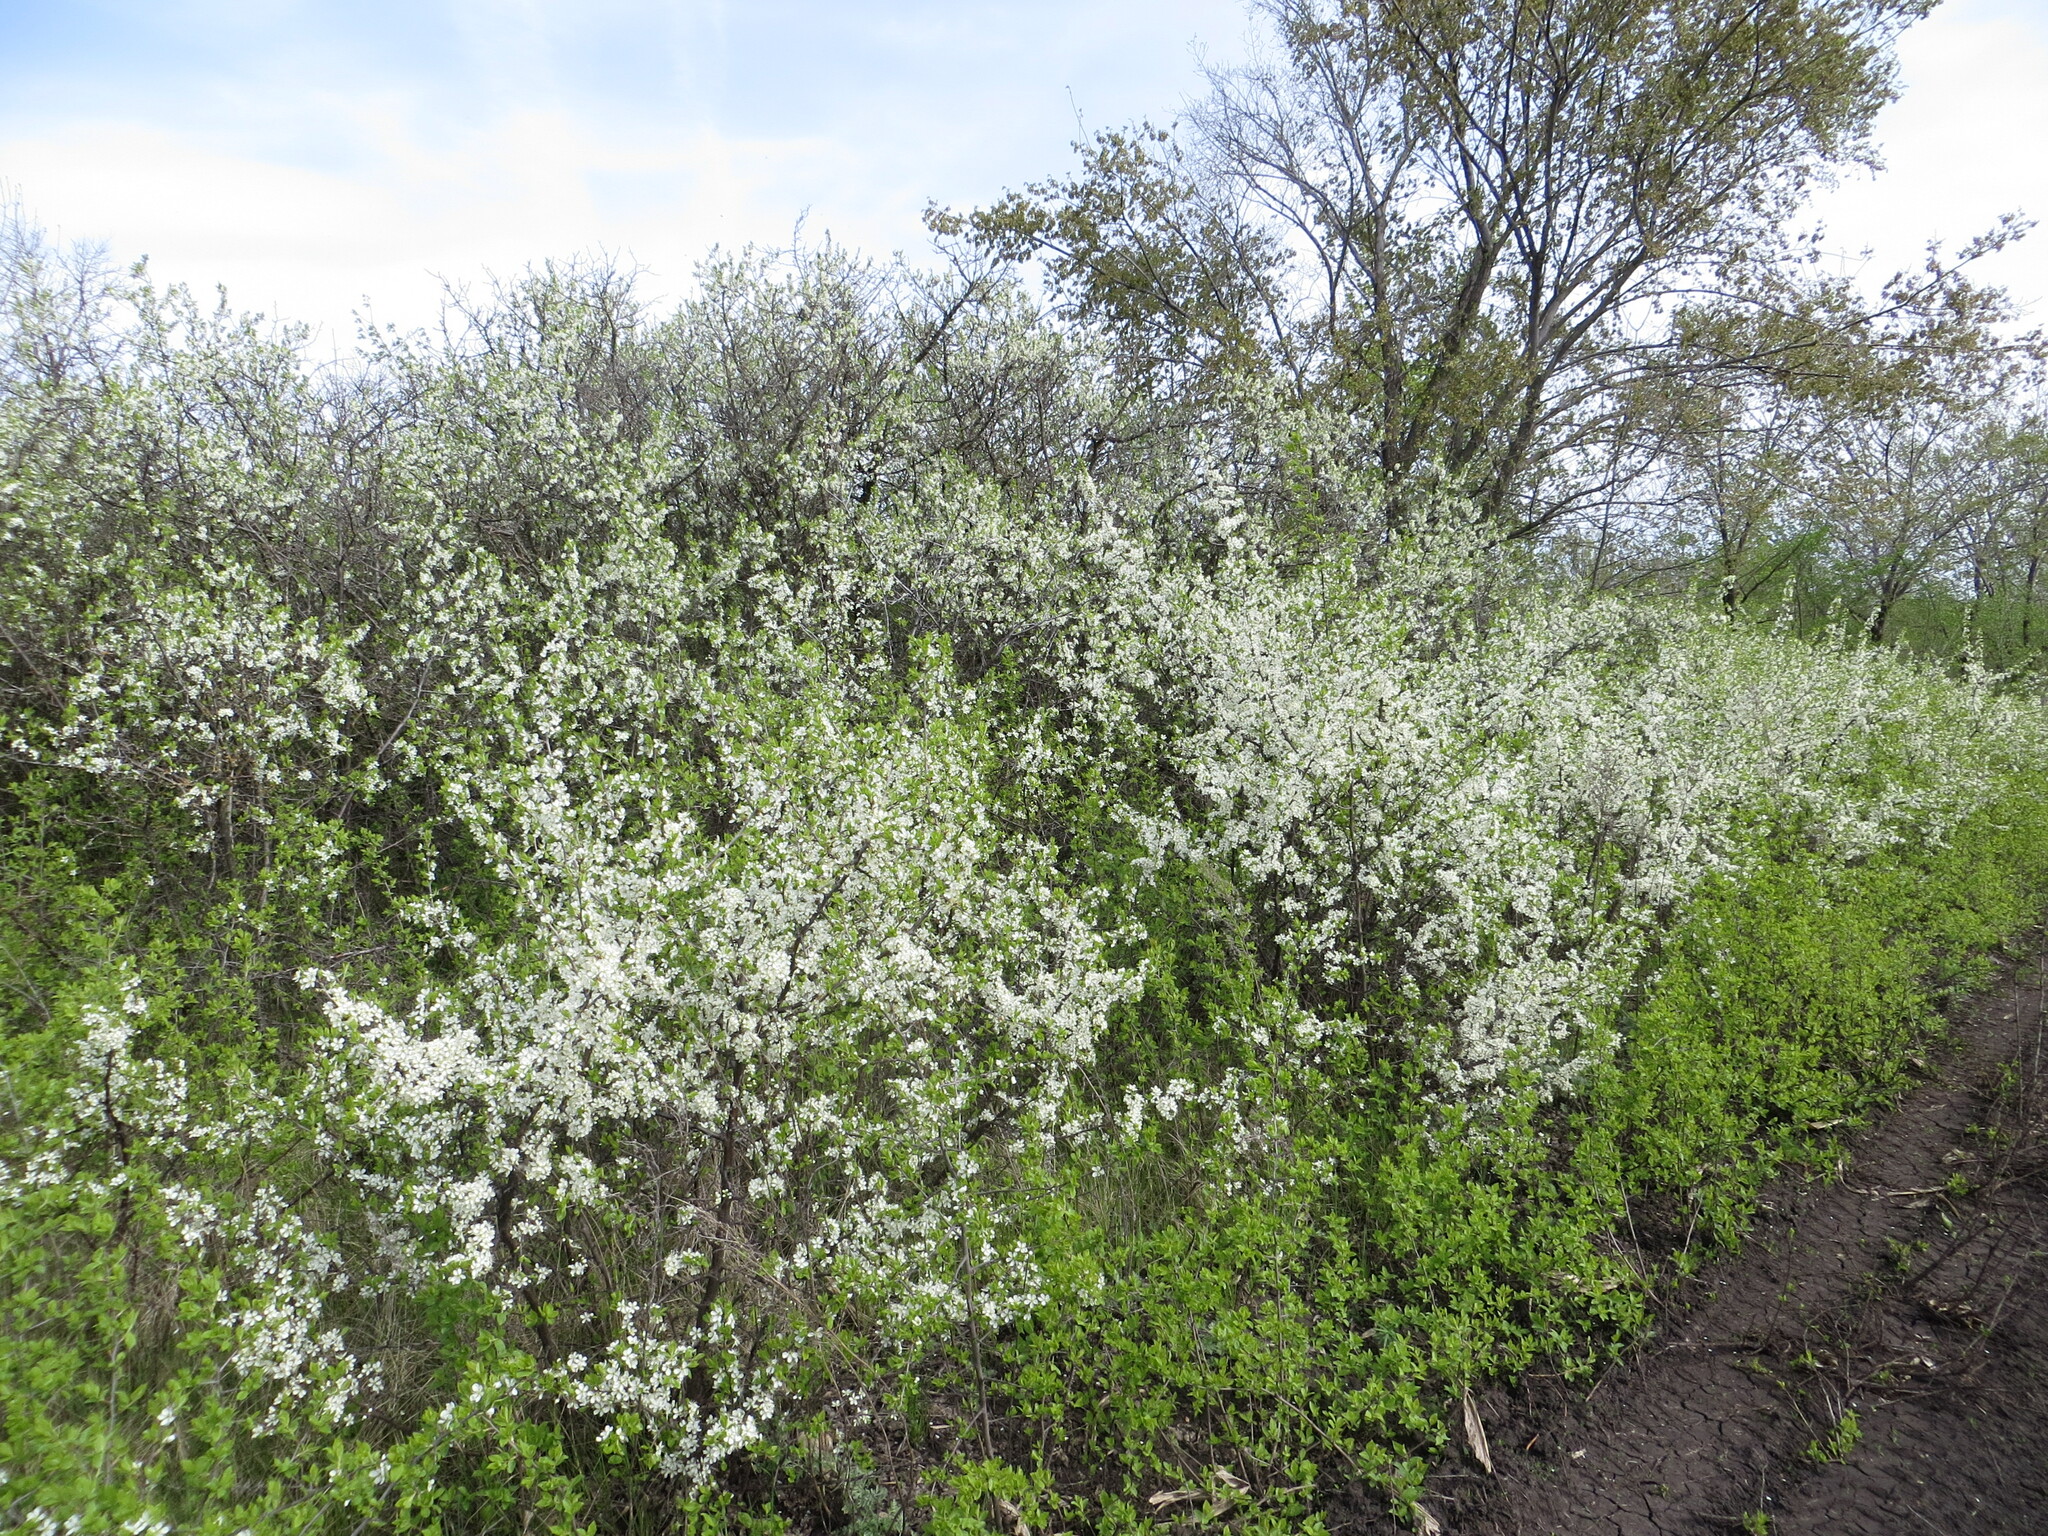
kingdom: Plantae
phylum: Tracheophyta
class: Magnoliopsida
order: Rosales
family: Rosaceae
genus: Prunus
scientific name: Prunus spinosa
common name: Blackthorn
